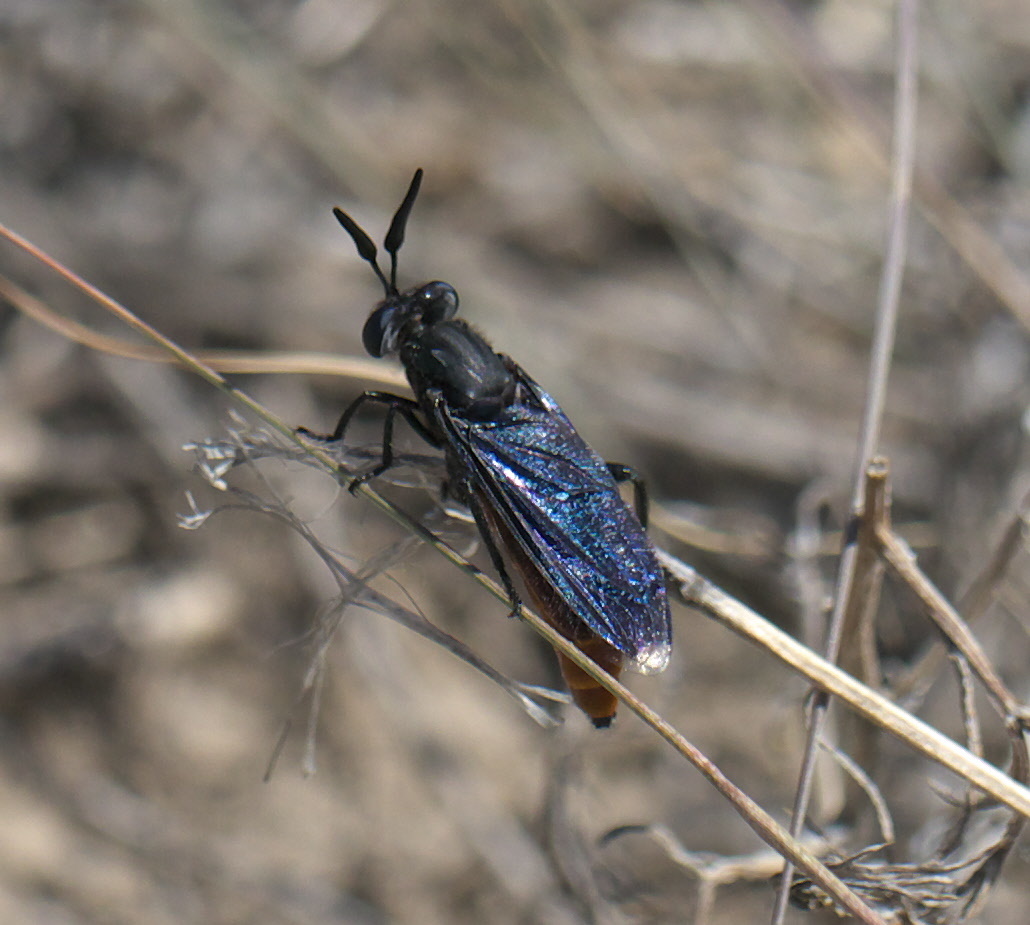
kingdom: Animalia
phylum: Arthropoda
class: Insecta
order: Diptera
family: Mydidae
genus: Phyllomydas
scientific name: Phyllomydas phyllocerus
